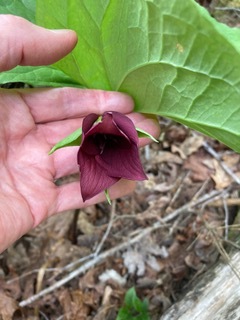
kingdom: Plantae
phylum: Tracheophyta
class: Liliopsida
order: Liliales
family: Melanthiaceae
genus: Trillium
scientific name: Trillium vaseyi
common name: Sweet trillium
